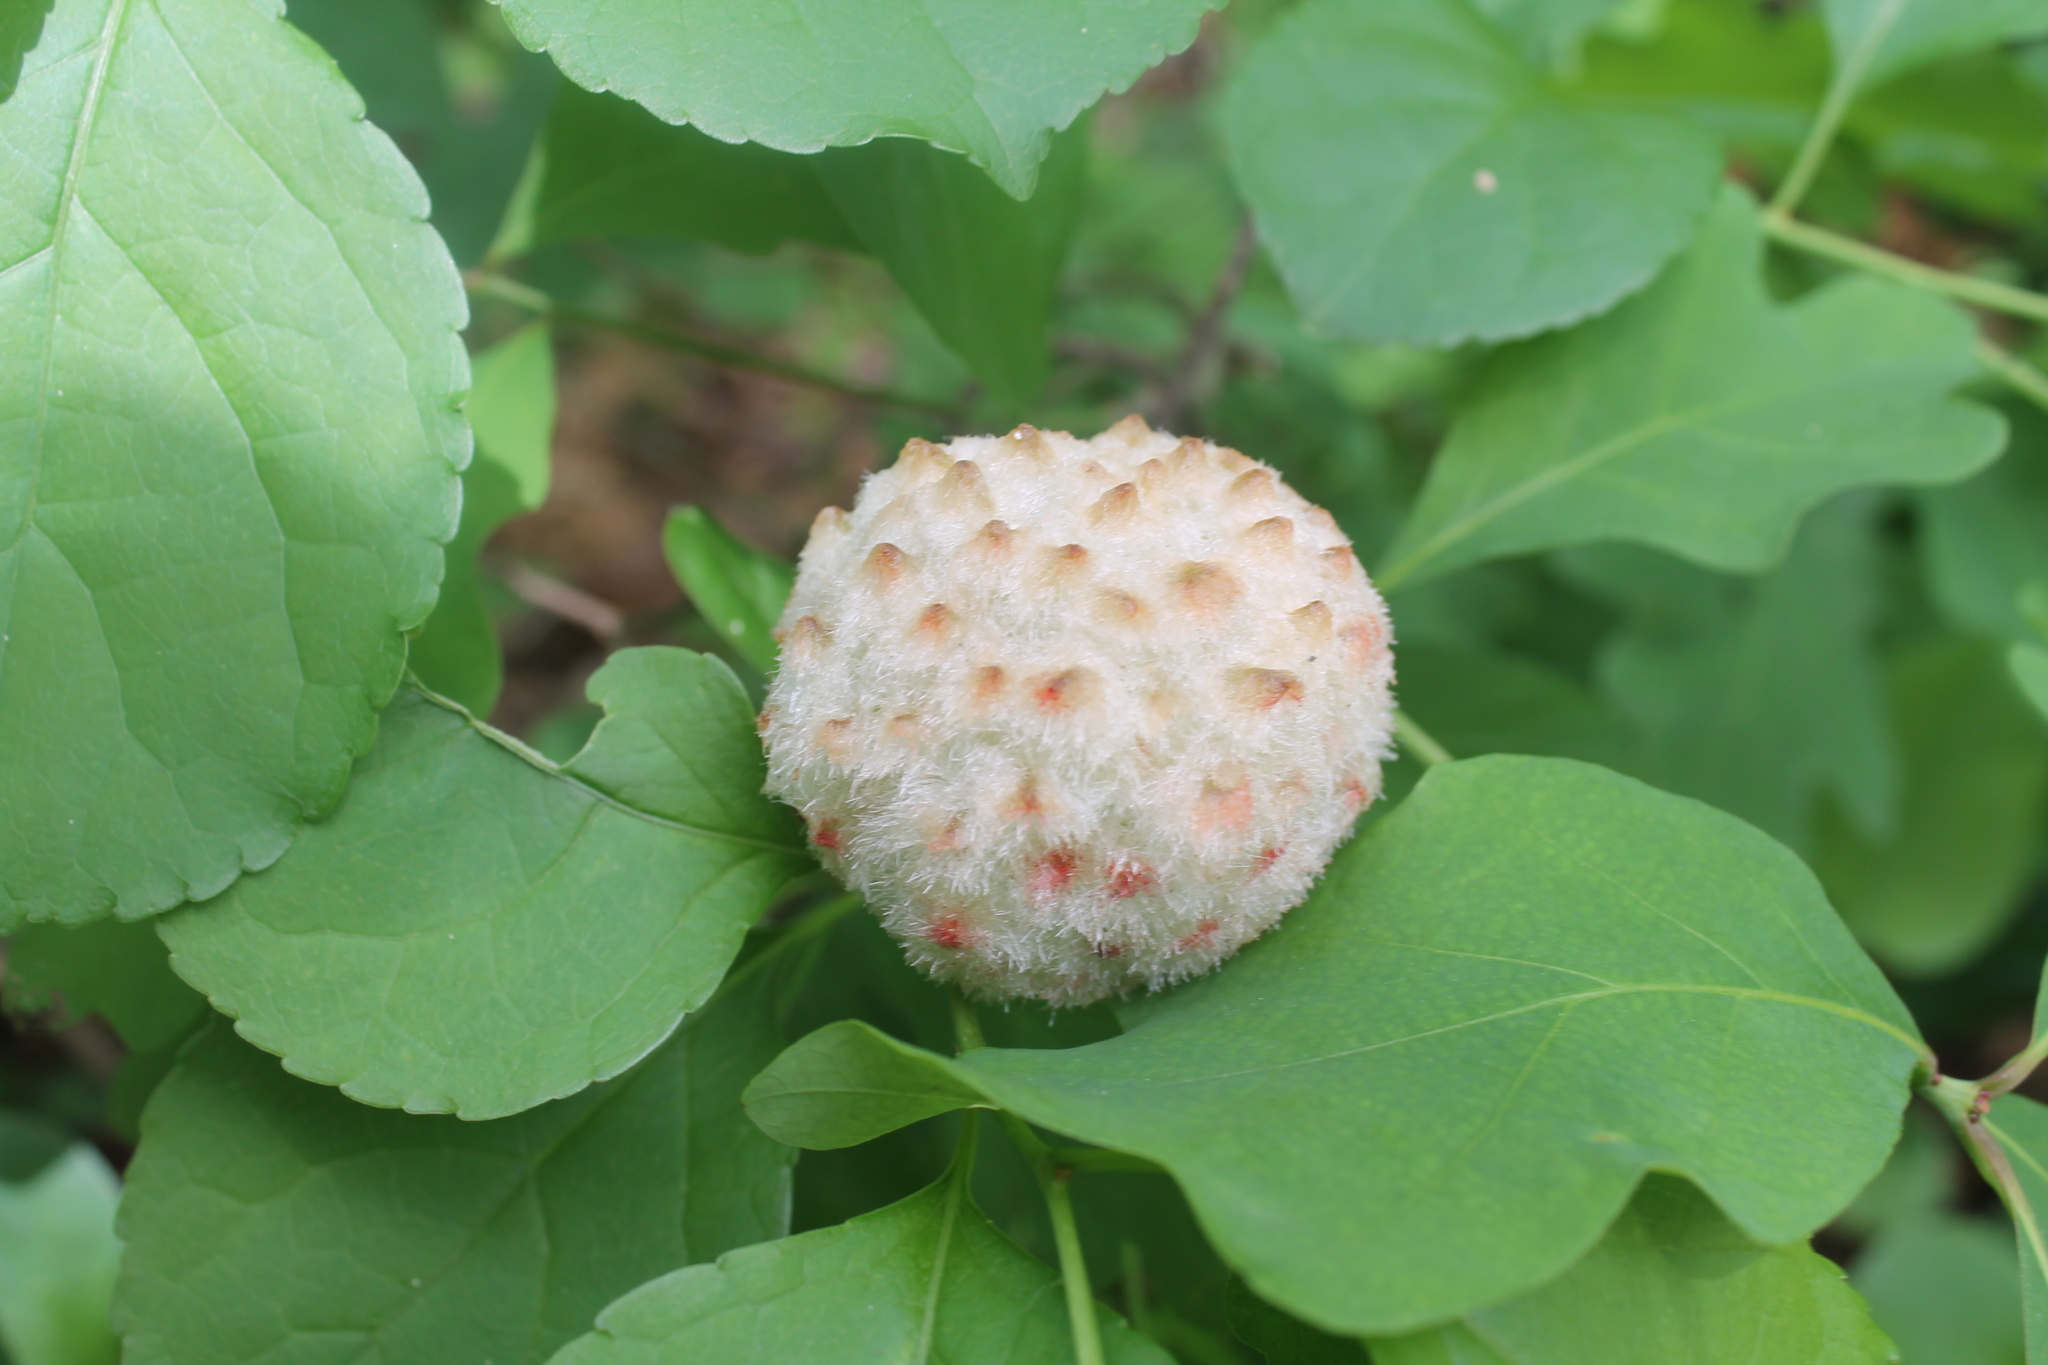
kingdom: Animalia
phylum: Arthropoda
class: Insecta
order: Hymenoptera
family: Cynipidae
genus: Callirhytis
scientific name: Callirhytis
